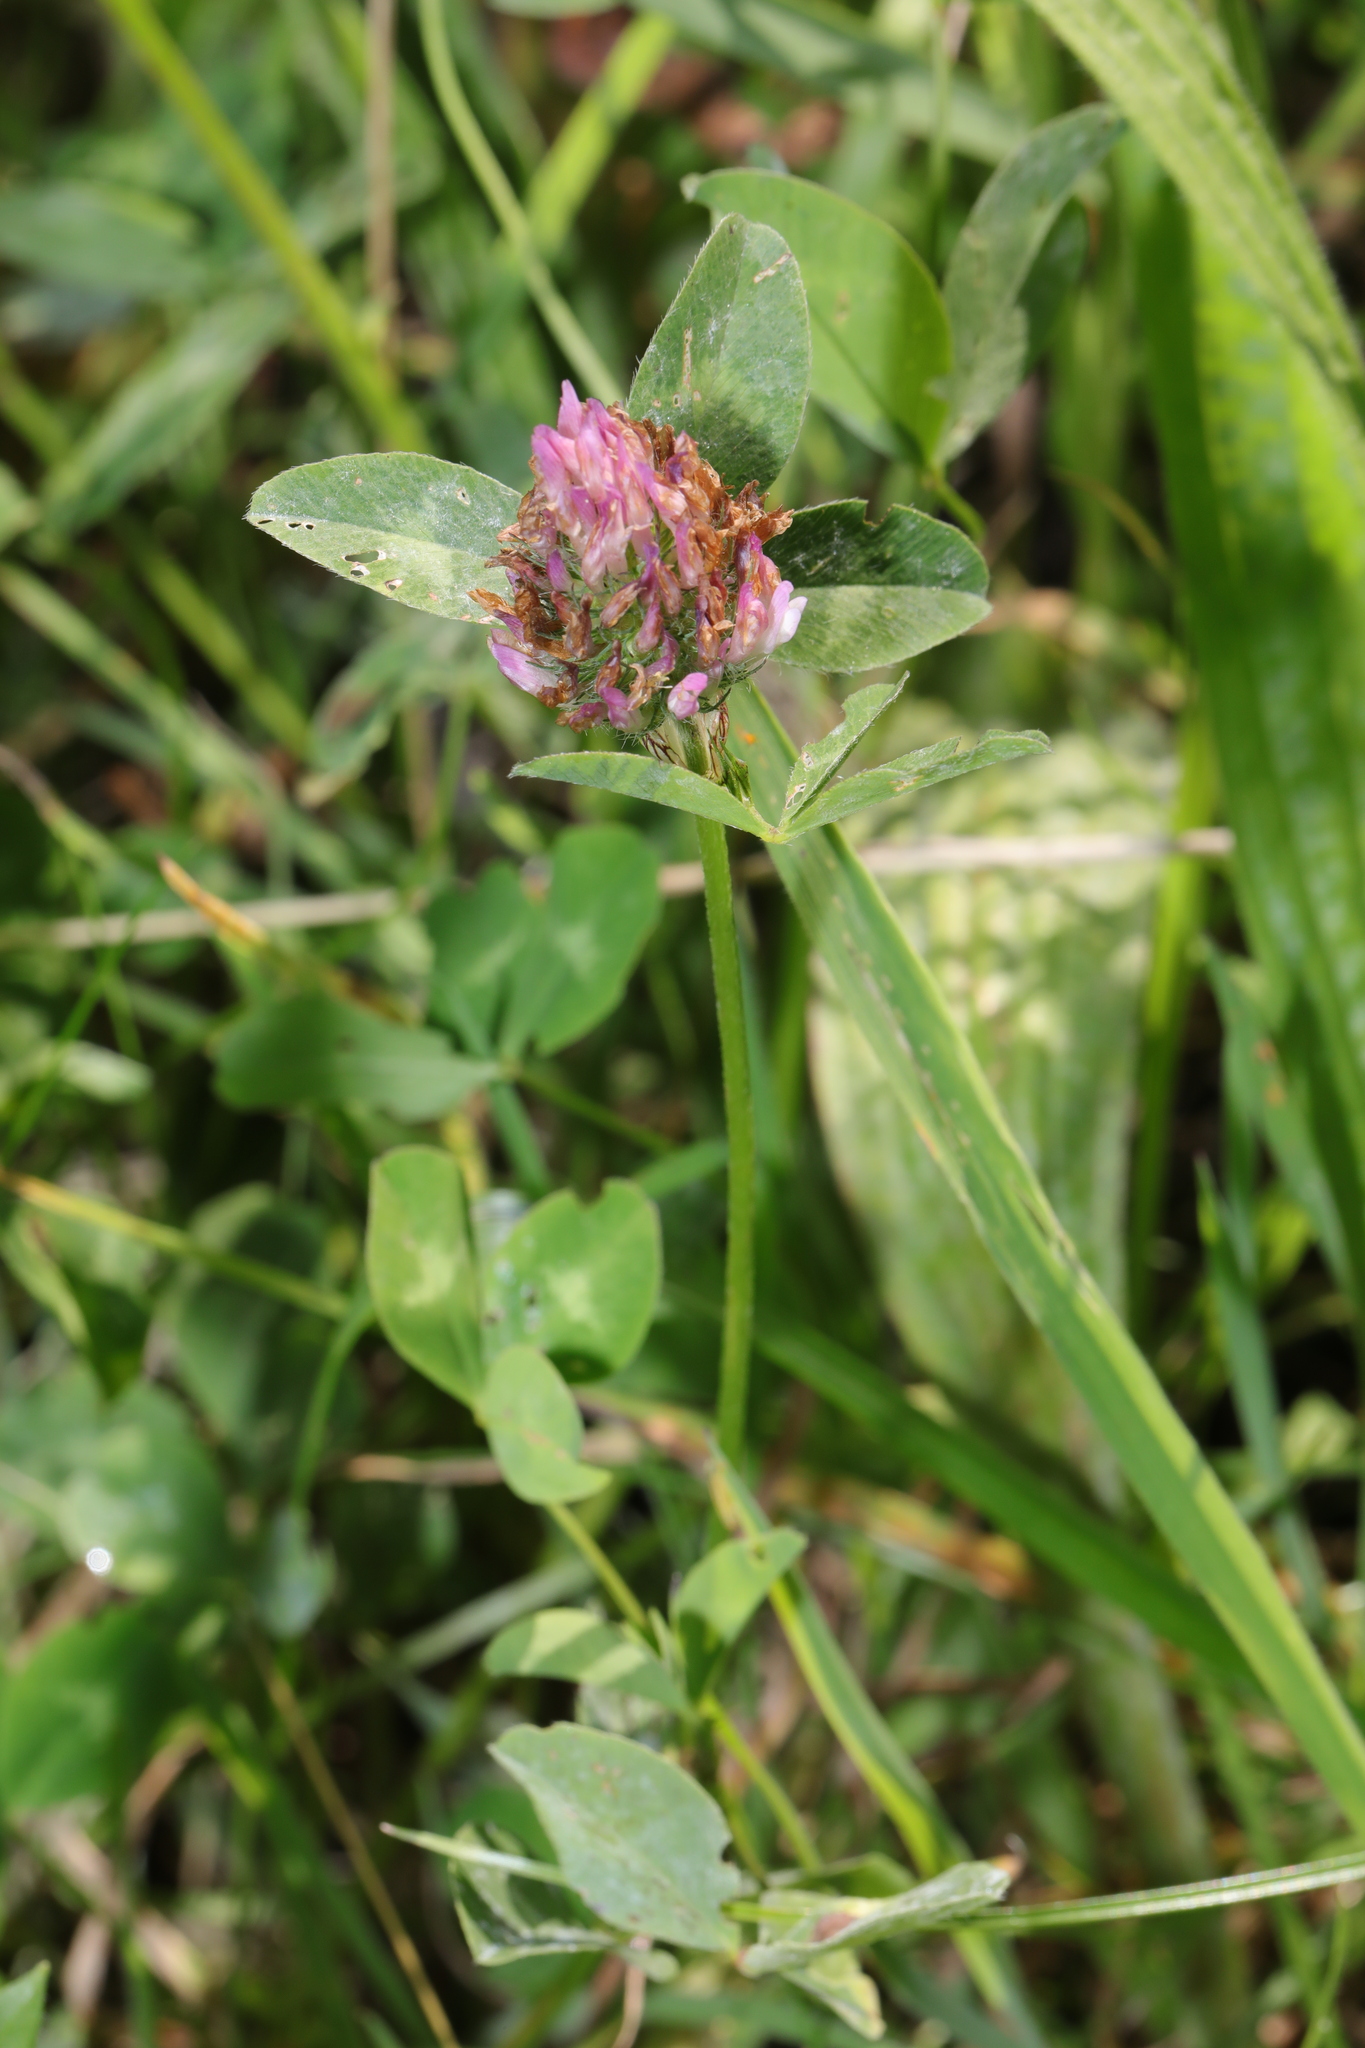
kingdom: Plantae
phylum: Tracheophyta
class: Magnoliopsida
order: Fabales
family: Fabaceae
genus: Trifolium
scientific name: Trifolium pratense
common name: Red clover
